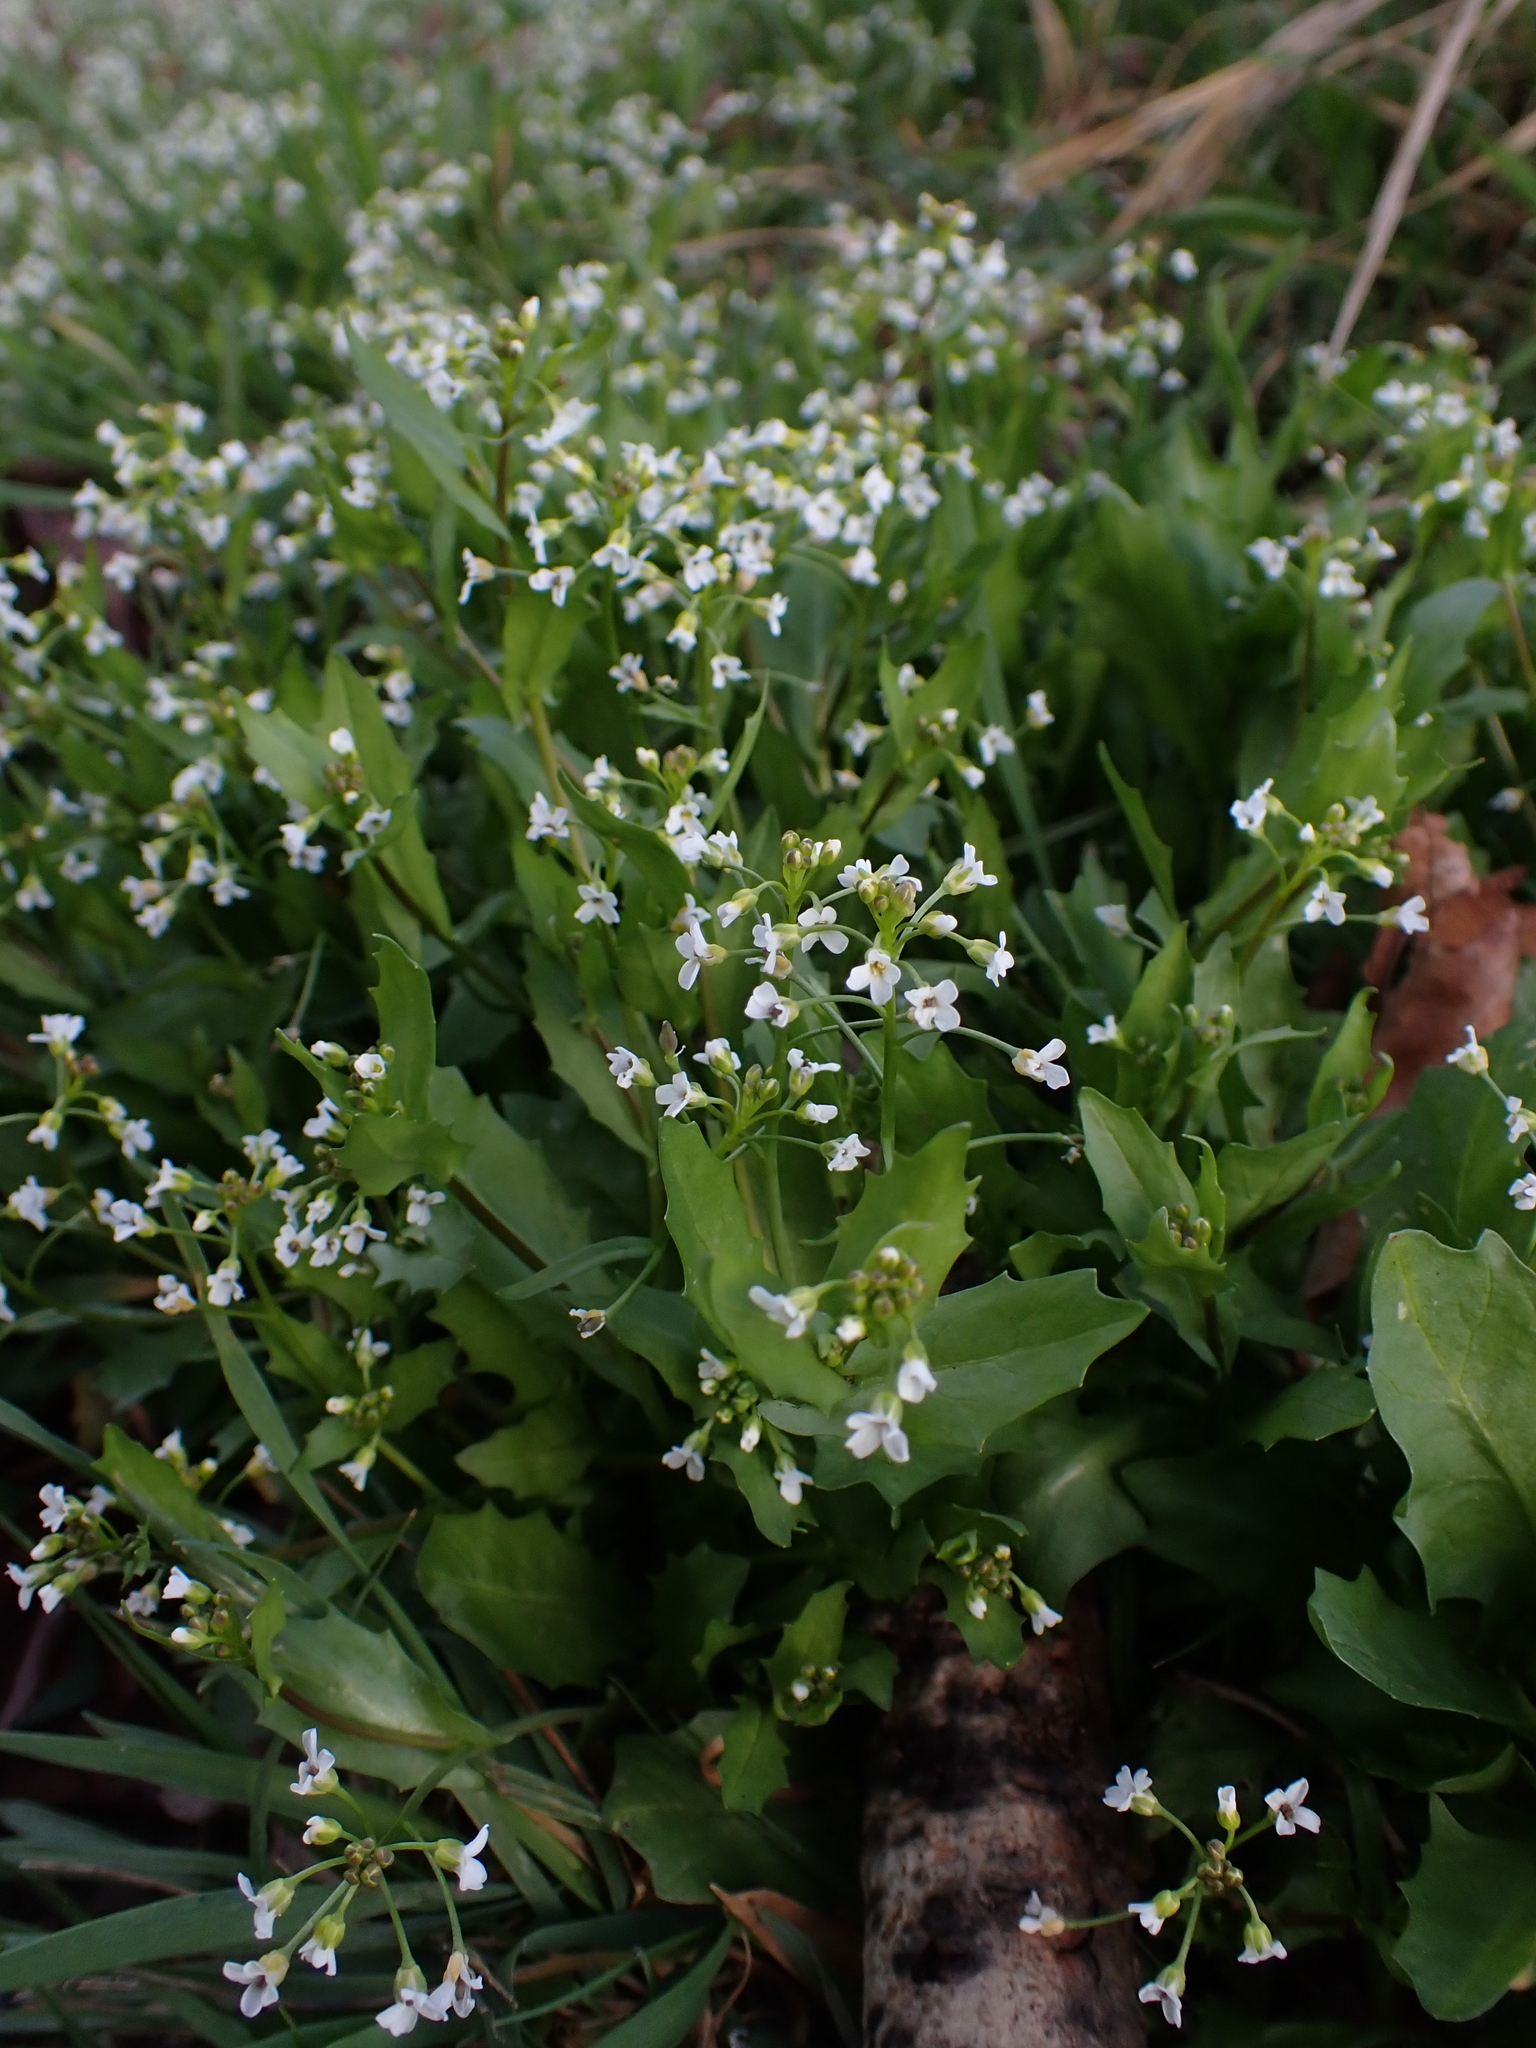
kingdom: Plantae
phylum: Tracheophyta
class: Magnoliopsida
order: Brassicales
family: Brassicaceae
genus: Calepina
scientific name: Calepina irregularis
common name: White ballmustard
